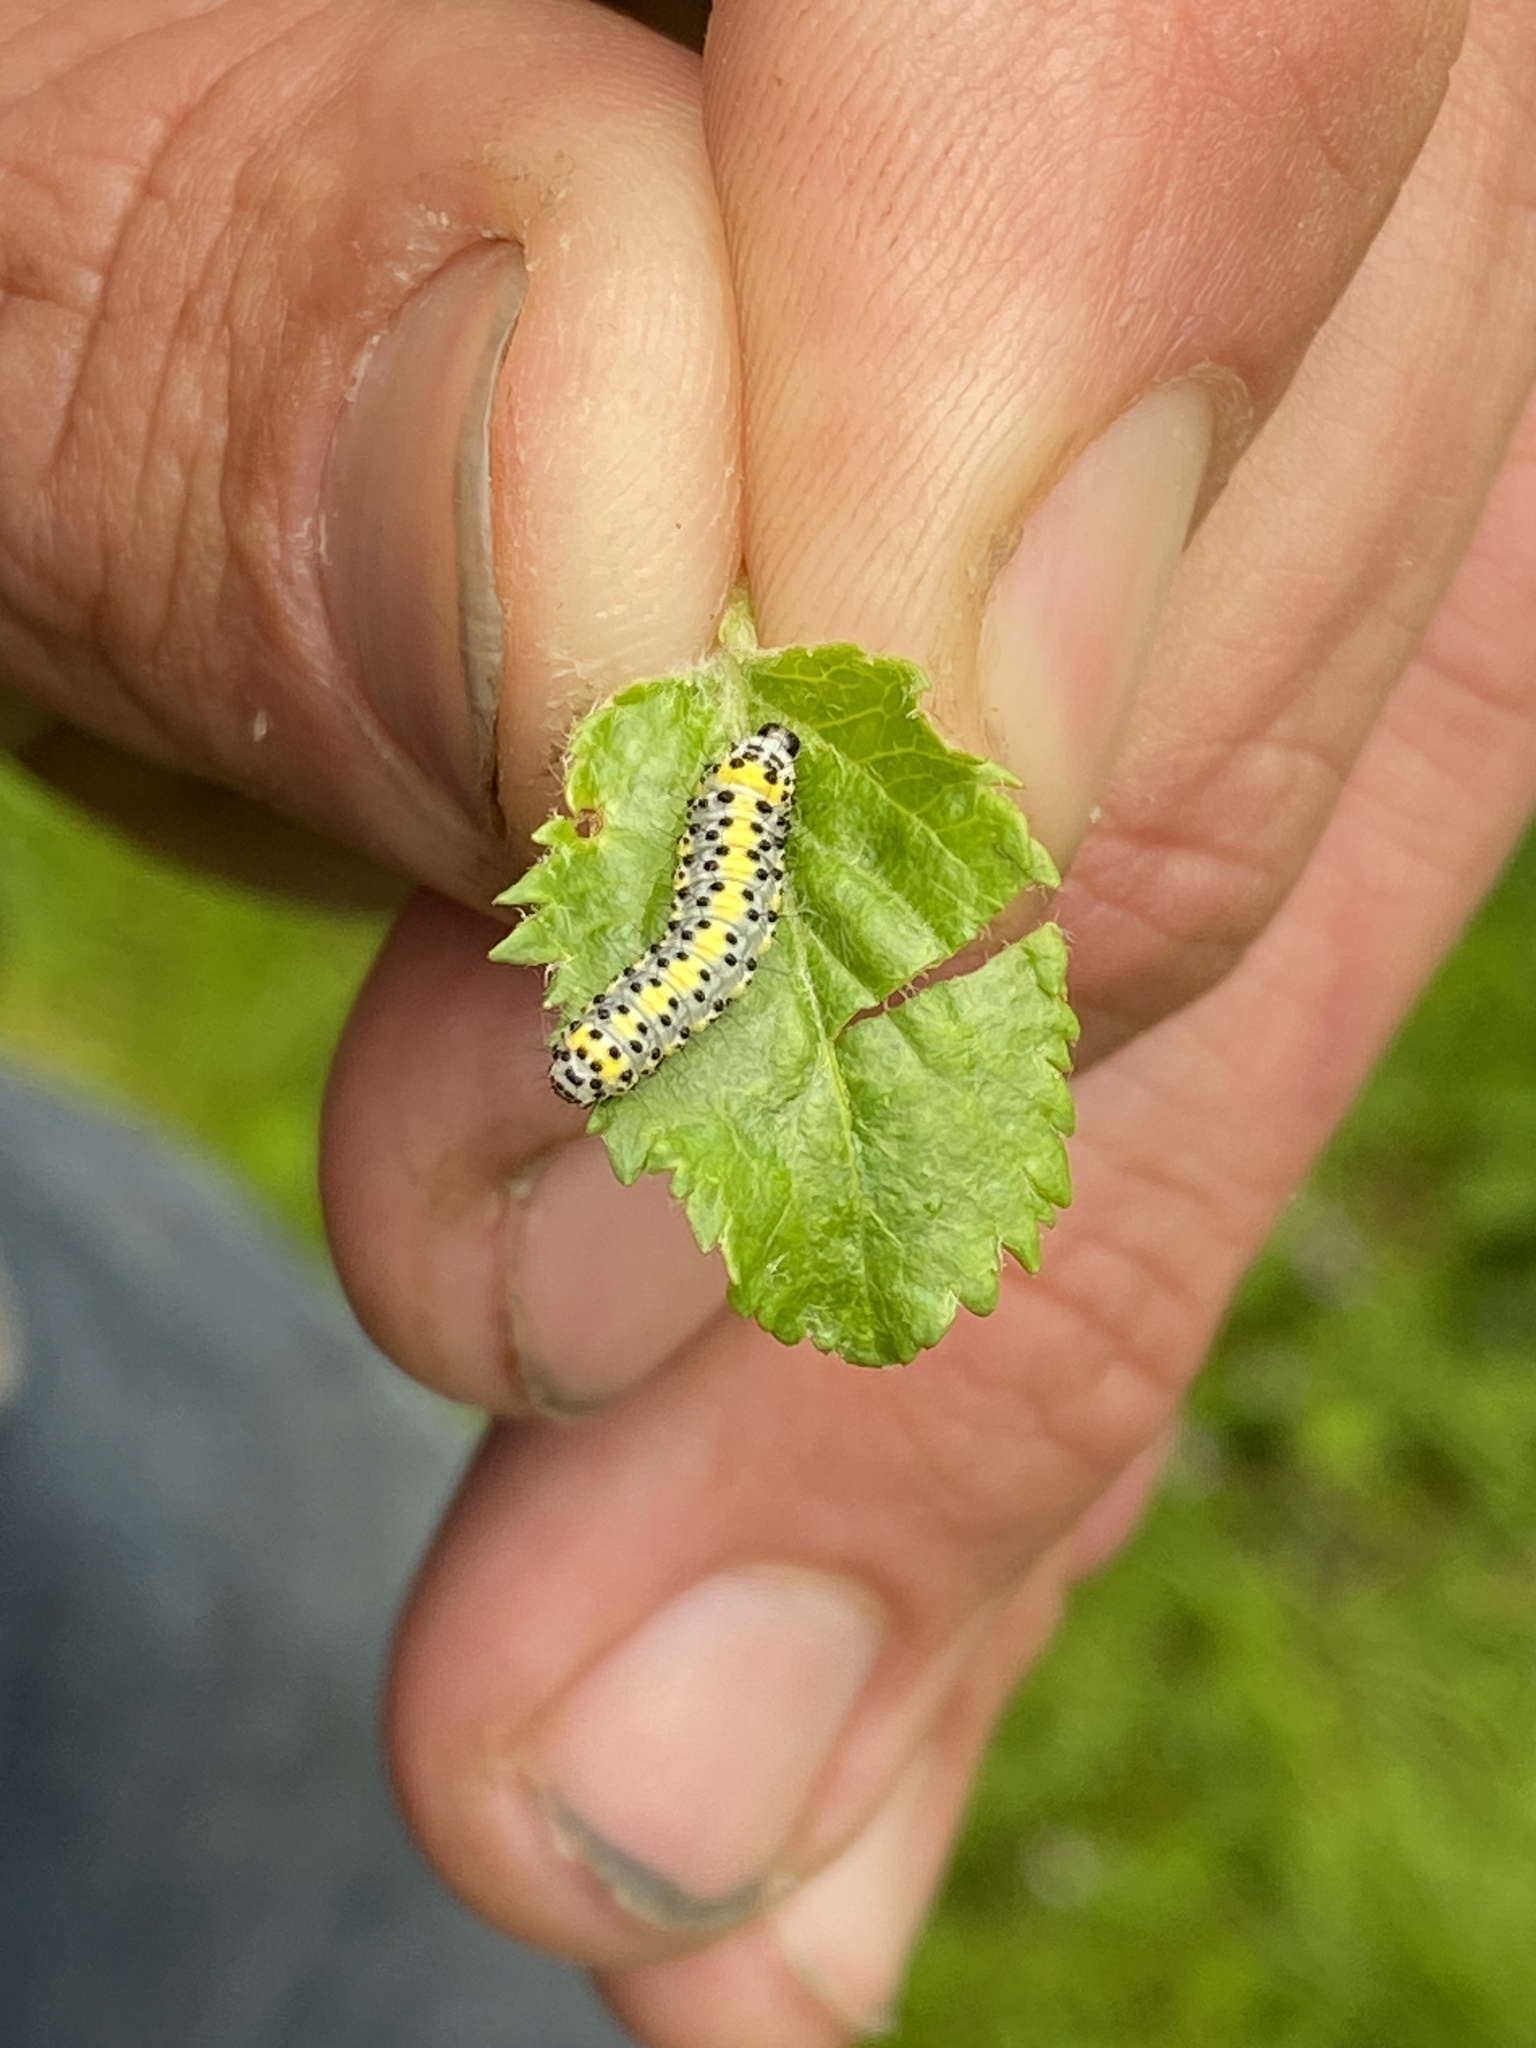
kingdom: Animalia
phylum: Arthropoda
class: Insecta
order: Lepidoptera
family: Noctuidae
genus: Diloba
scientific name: Diloba caeruleocephala
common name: Figure of eight
